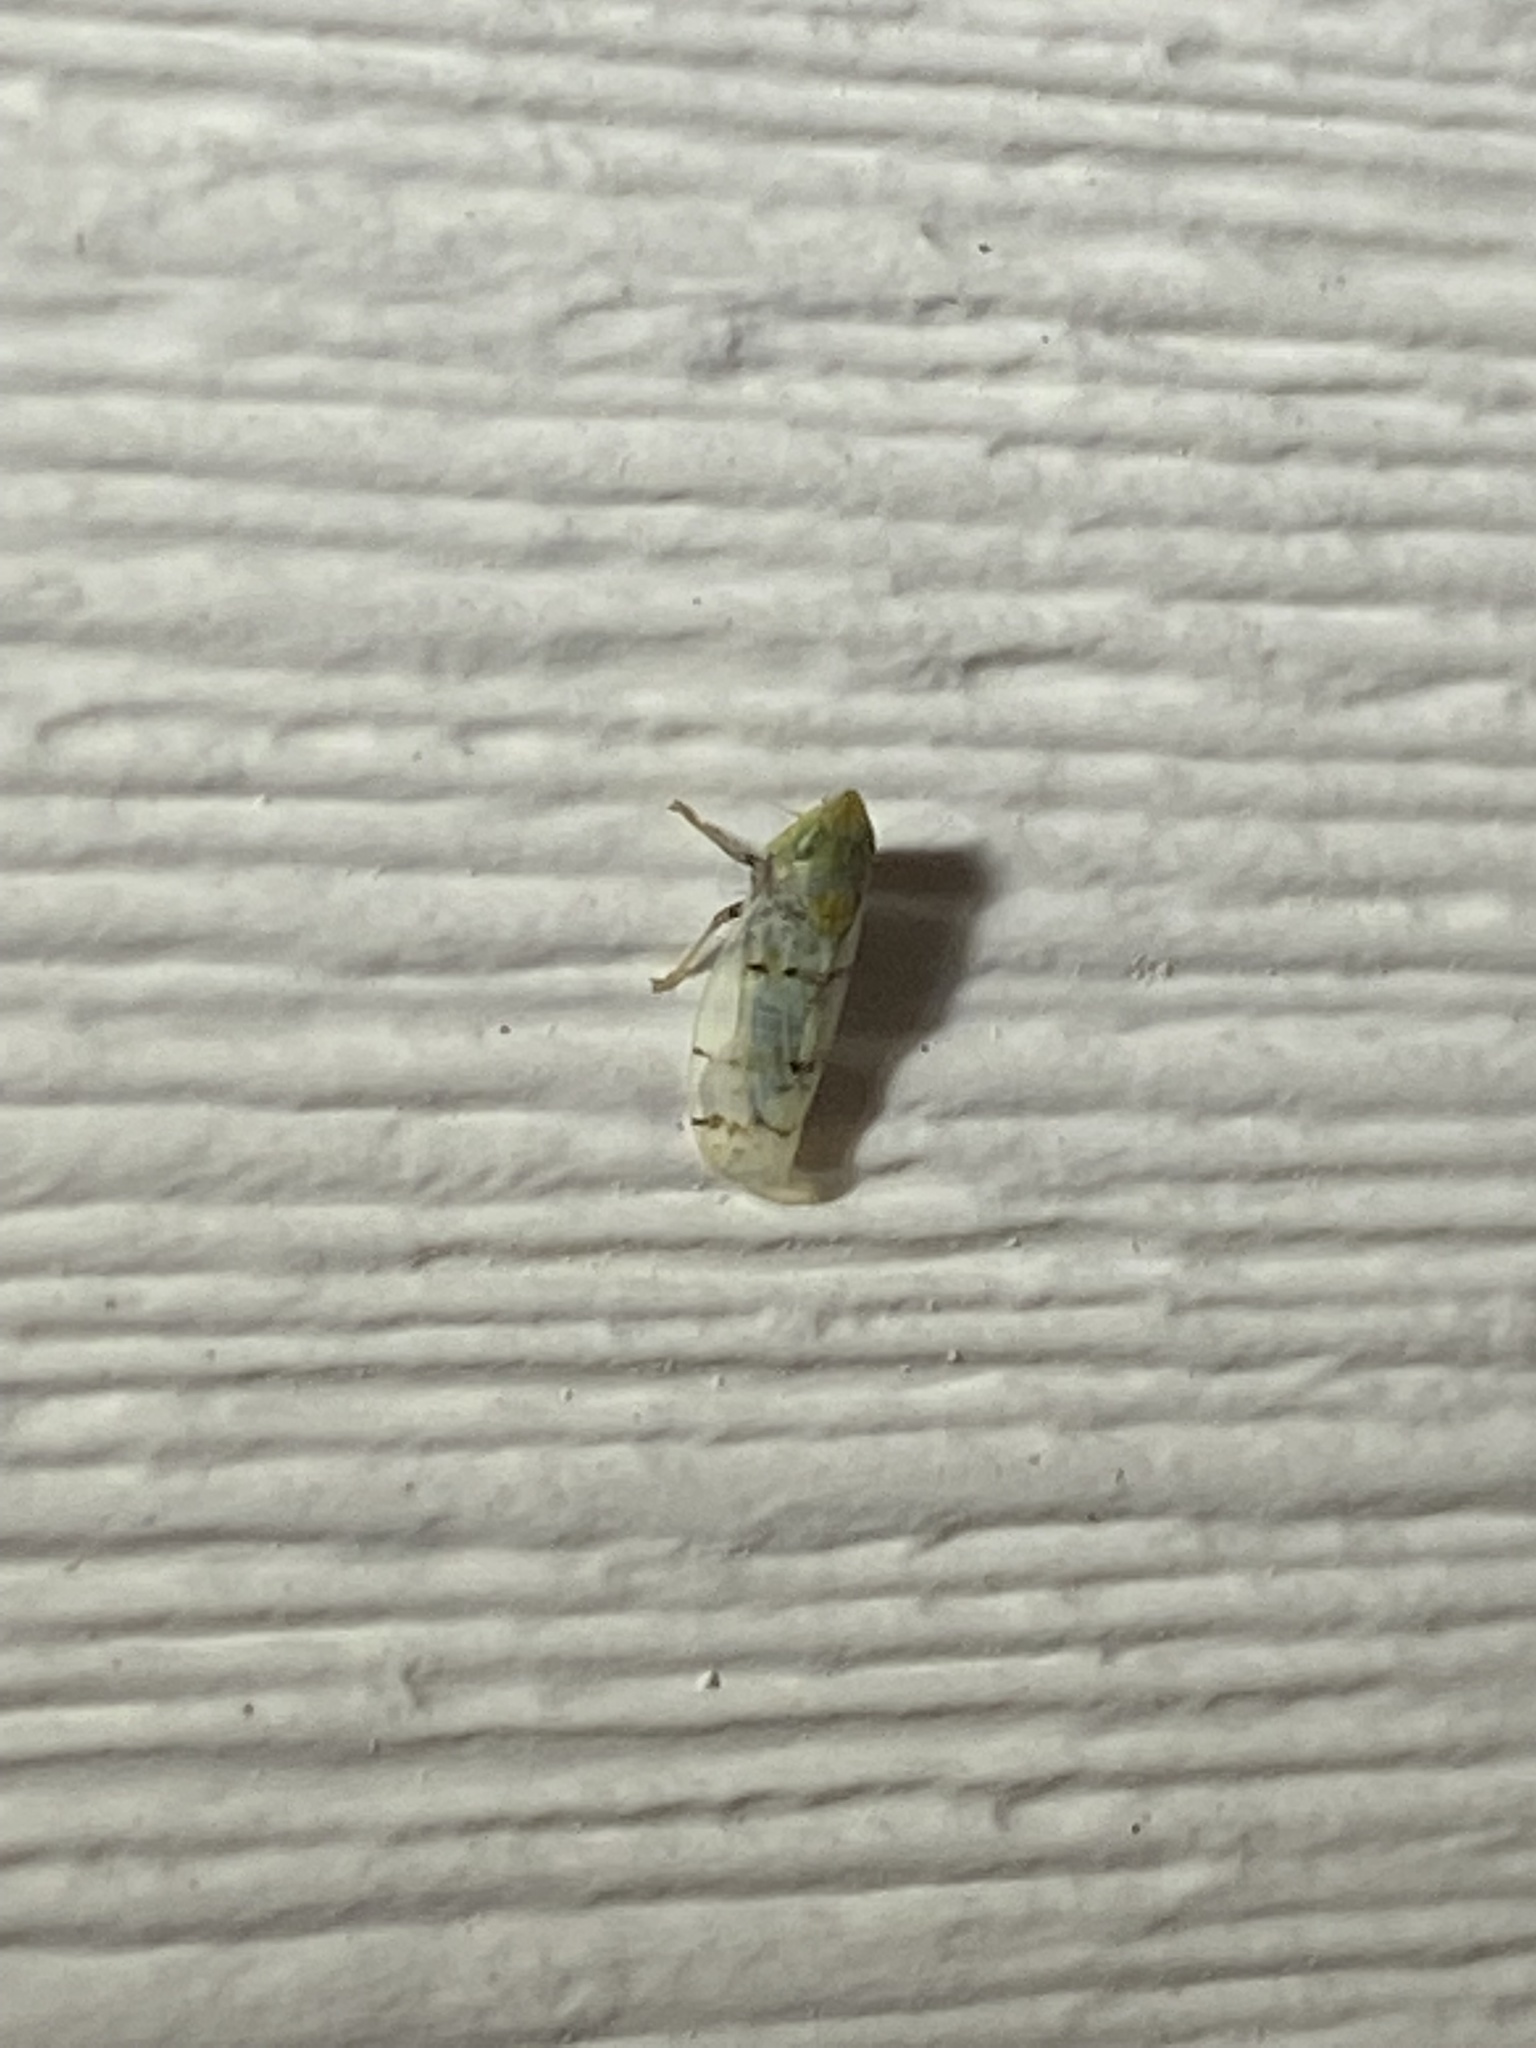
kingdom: Animalia
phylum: Arthropoda
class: Insecta
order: Hemiptera
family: Cicadellidae
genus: Japananus
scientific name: Japananus hyalinus
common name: The japanese maple leafhopper
